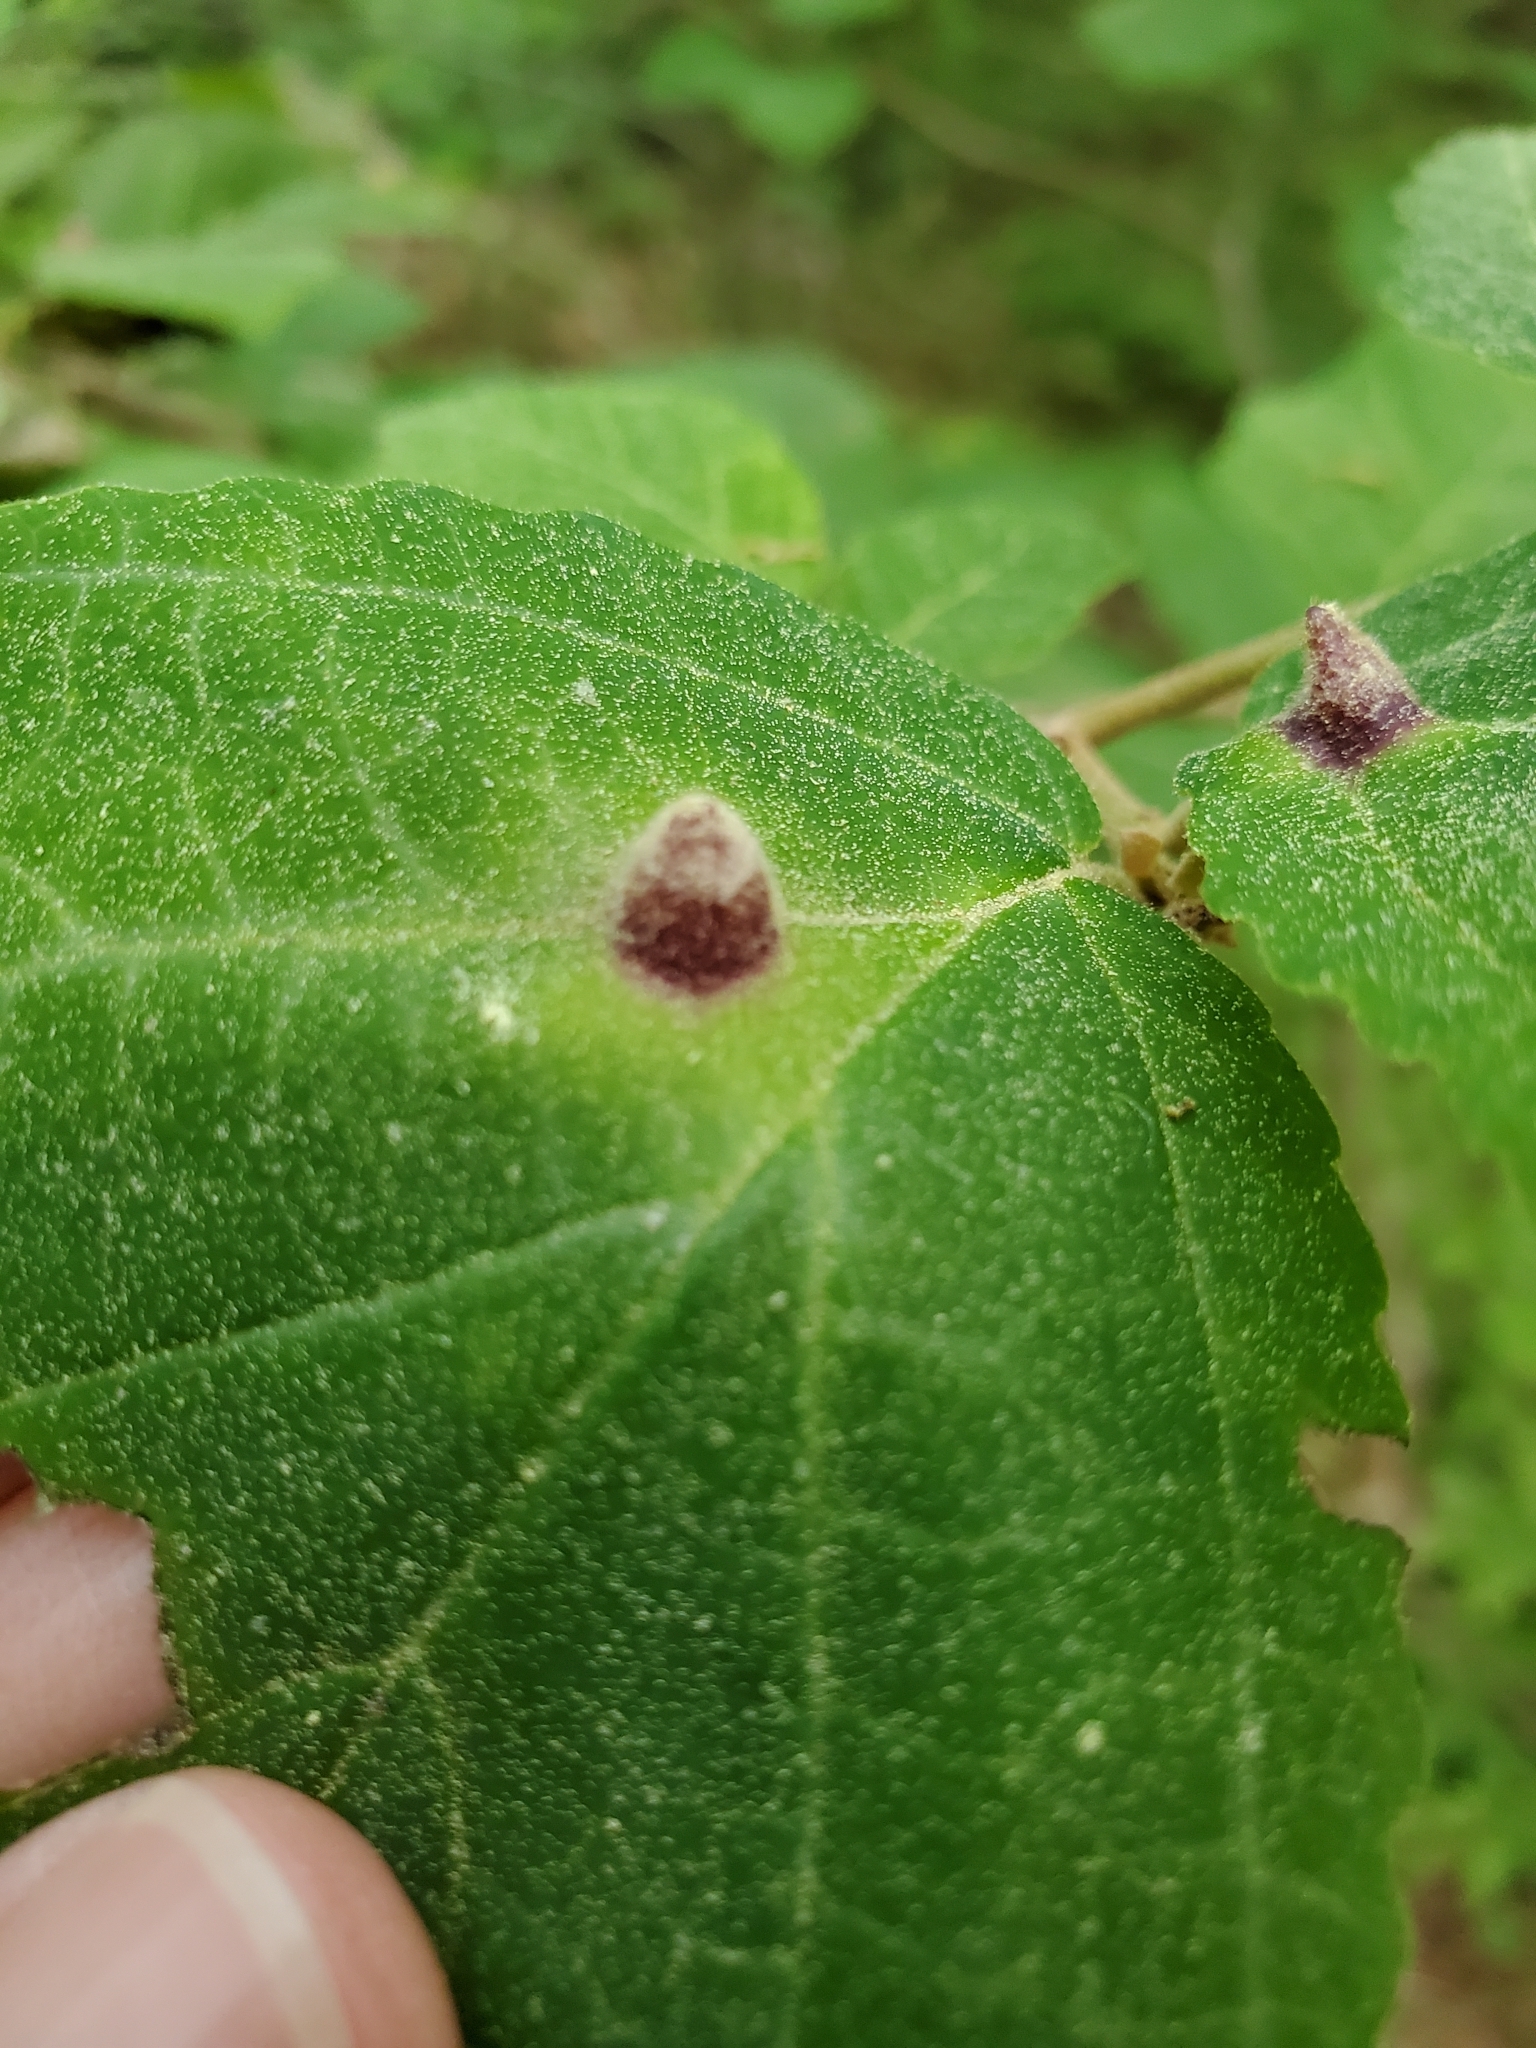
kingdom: Animalia
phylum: Arthropoda
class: Insecta
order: Hemiptera
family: Aphididae
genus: Hormaphis
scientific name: Hormaphis hamamelidis
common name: Witch-hazel cone gall aphid
